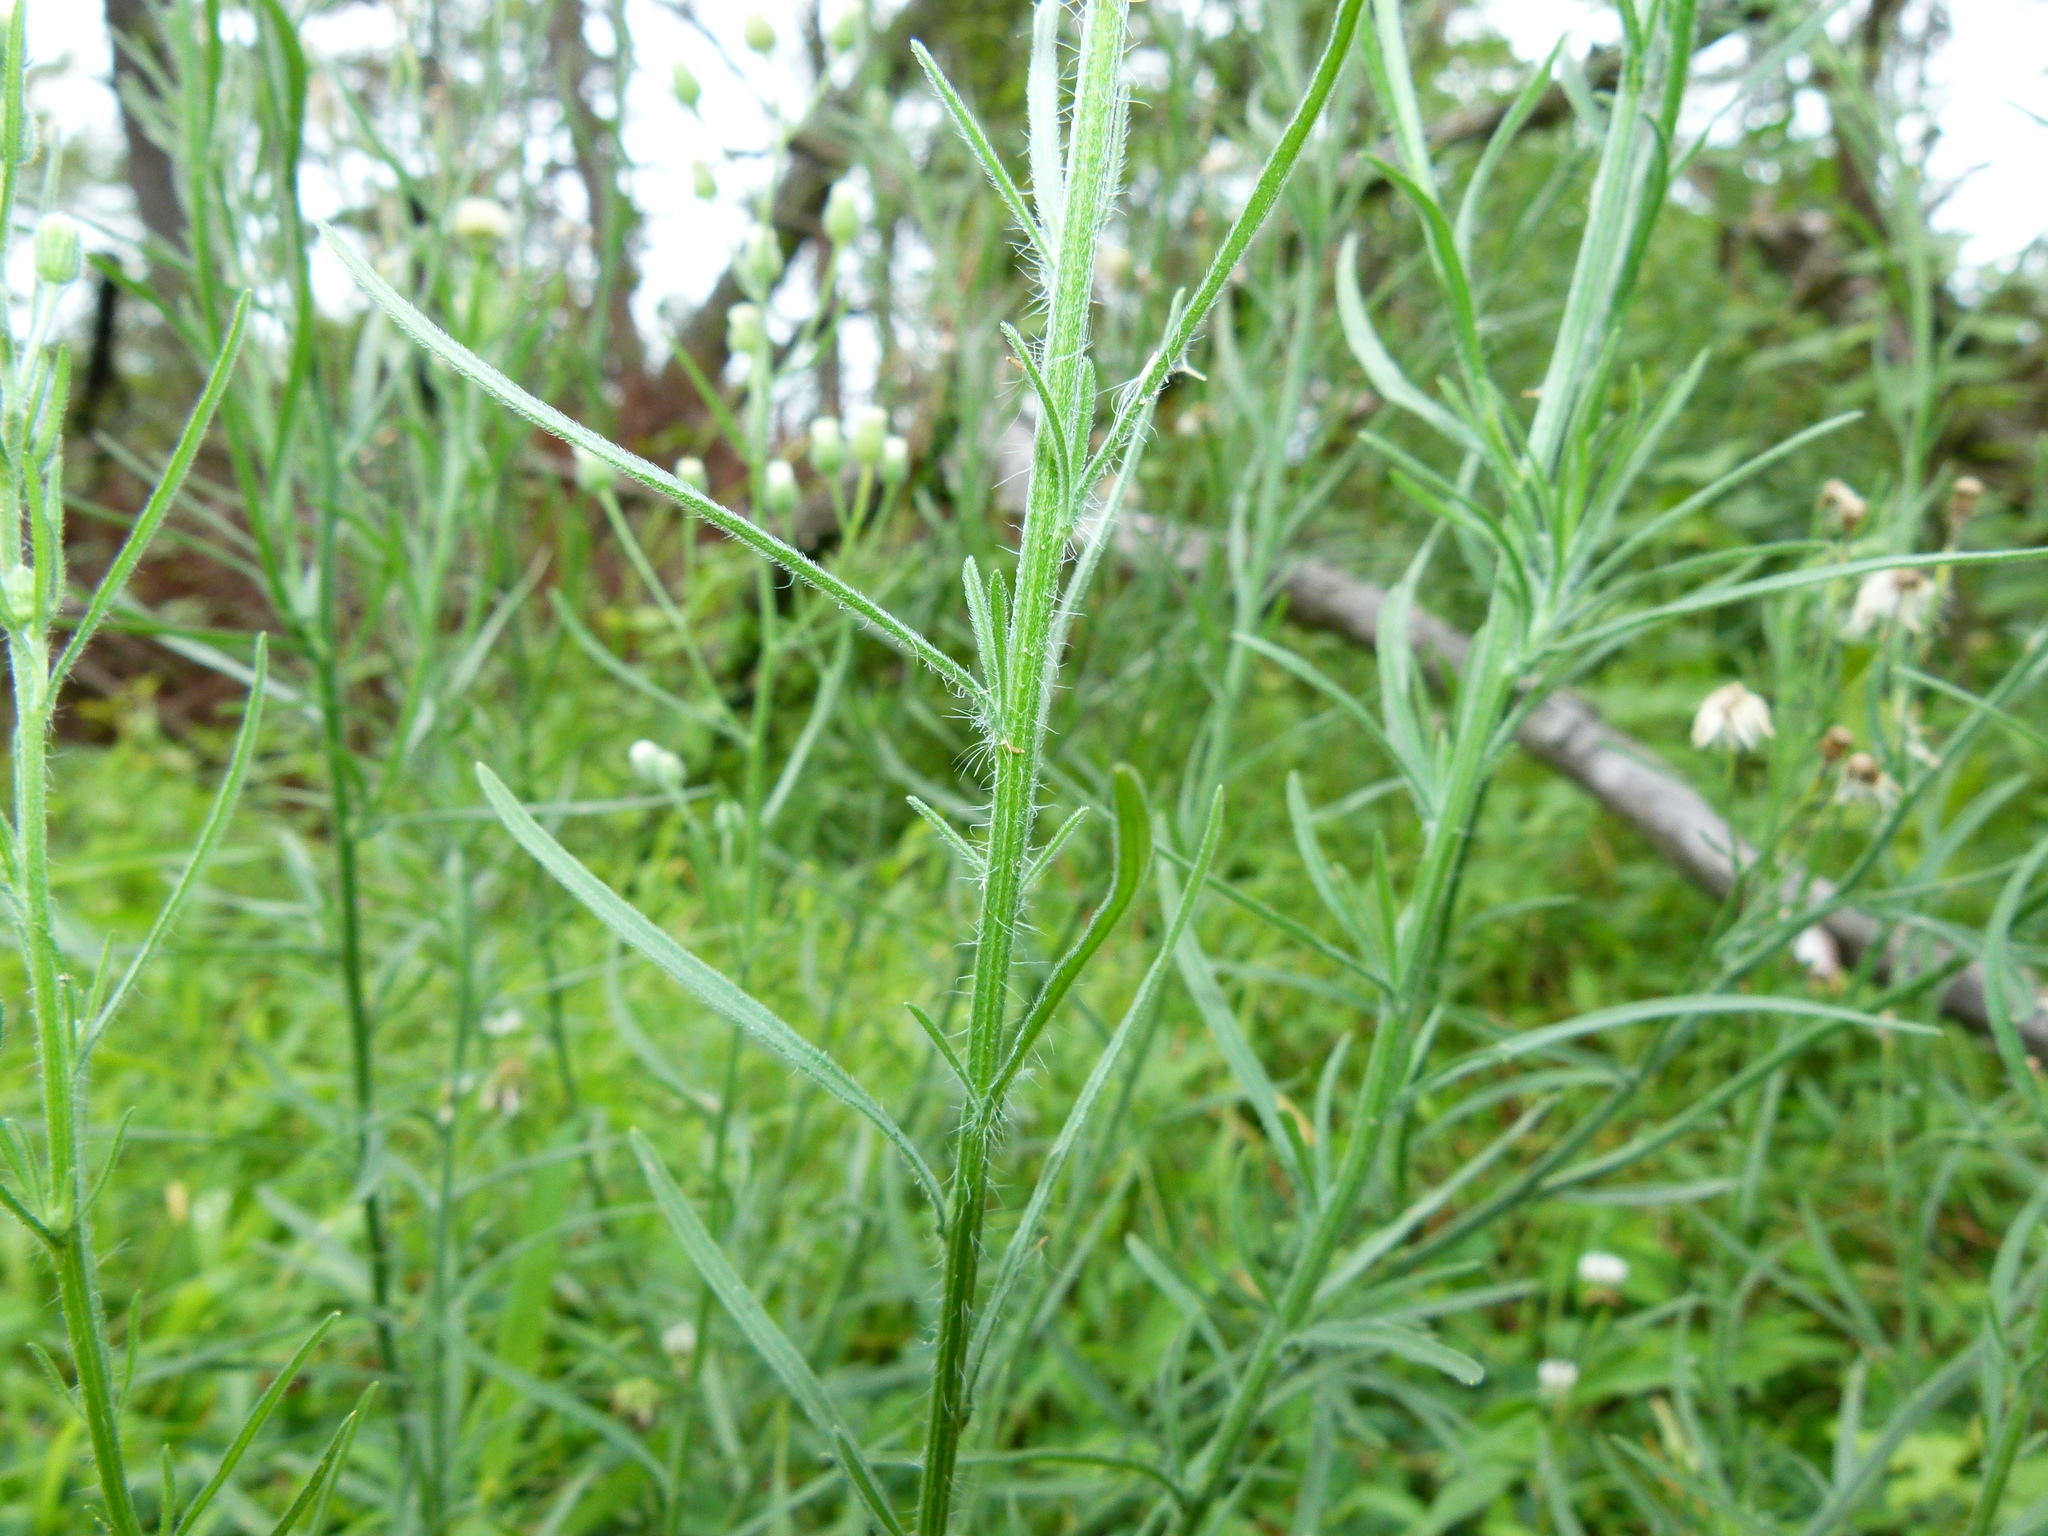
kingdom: Plantae
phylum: Tracheophyta
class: Magnoliopsida
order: Asterales
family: Asteraceae
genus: Erigeron
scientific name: Erigeron bonariensis
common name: Argentine fleabane
